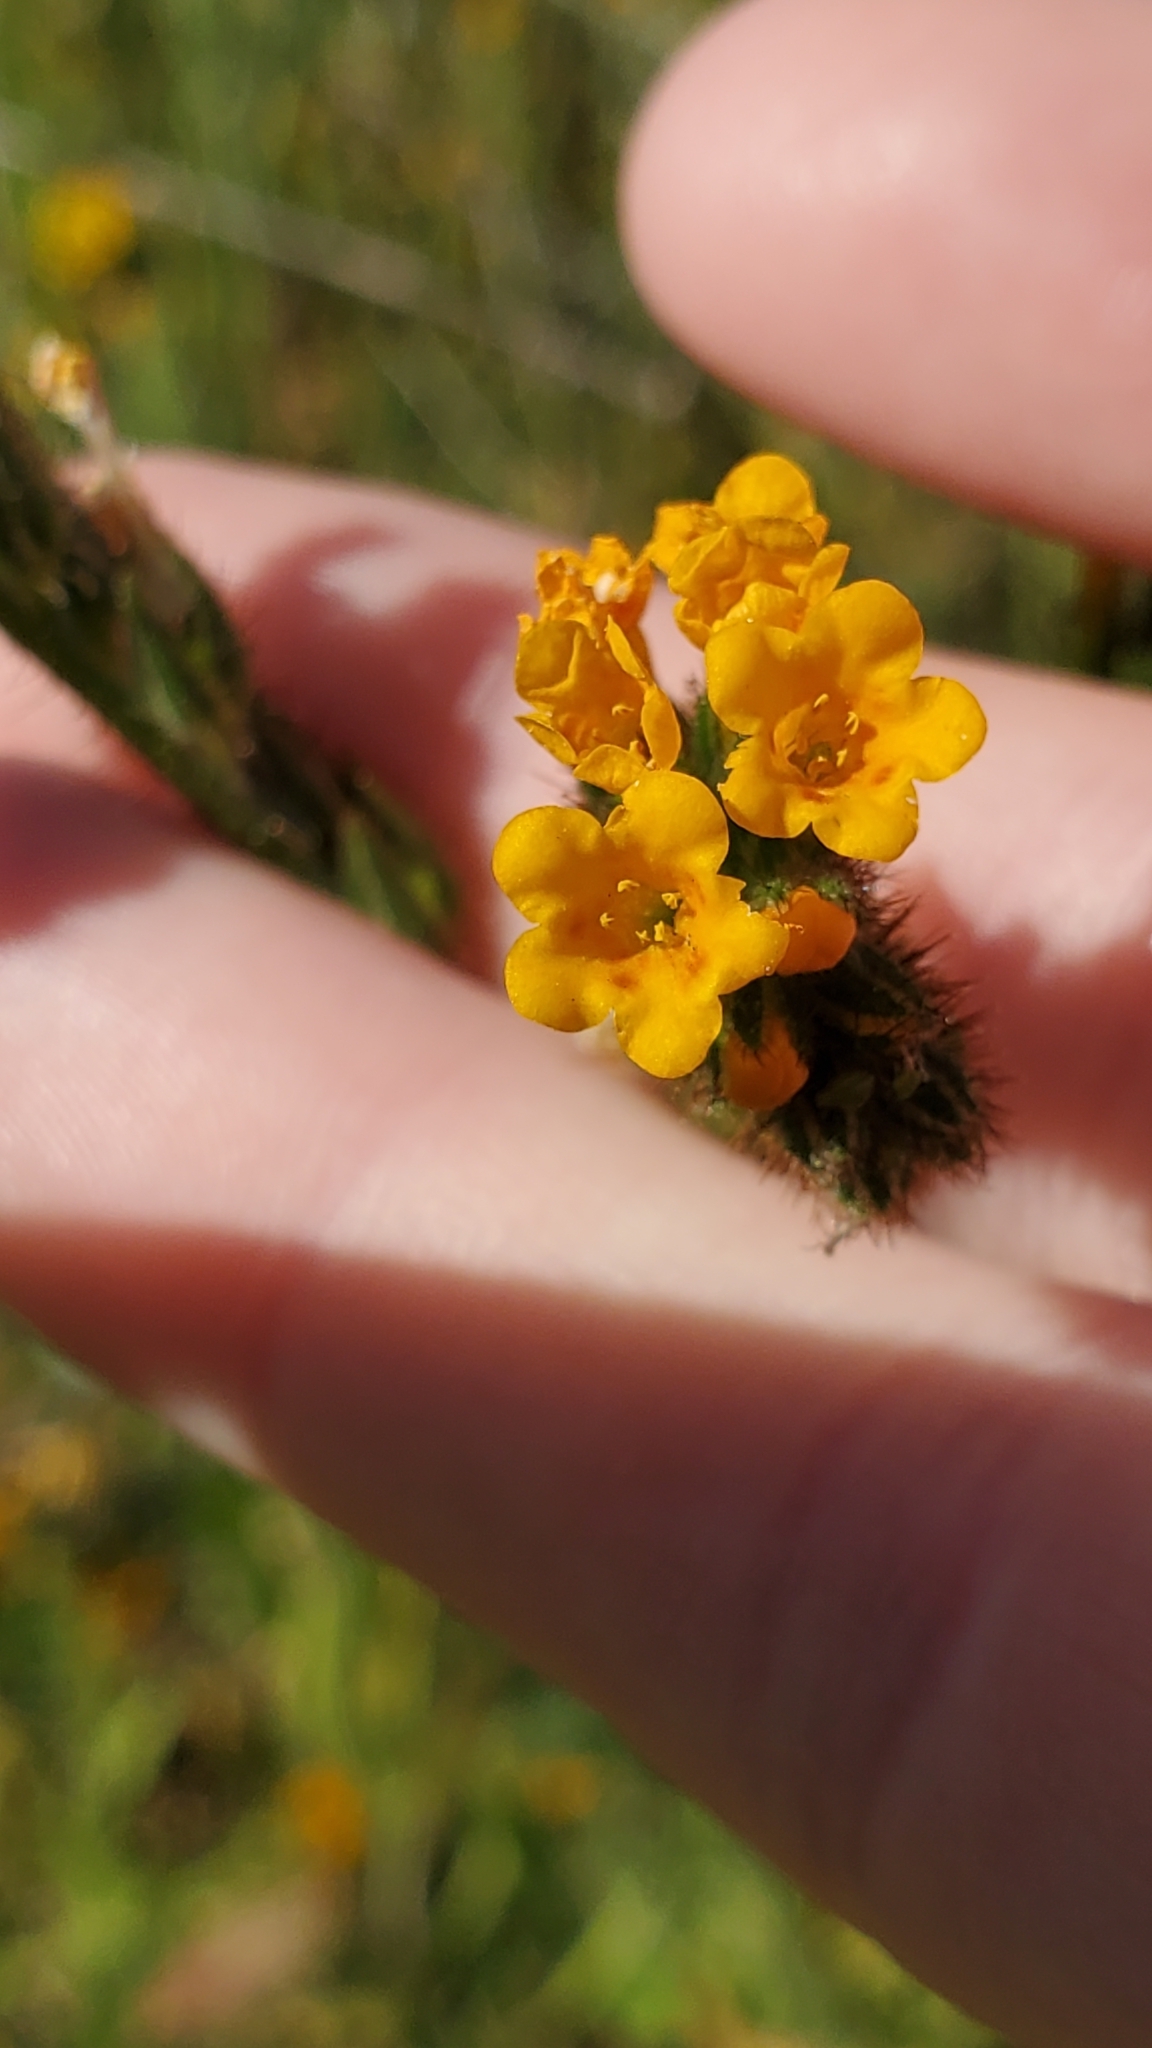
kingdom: Plantae
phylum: Tracheophyta
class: Magnoliopsida
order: Boraginales
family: Boraginaceae
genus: Amsinckia
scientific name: Amsinckia menziesii
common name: Menzies' fiddleneck
